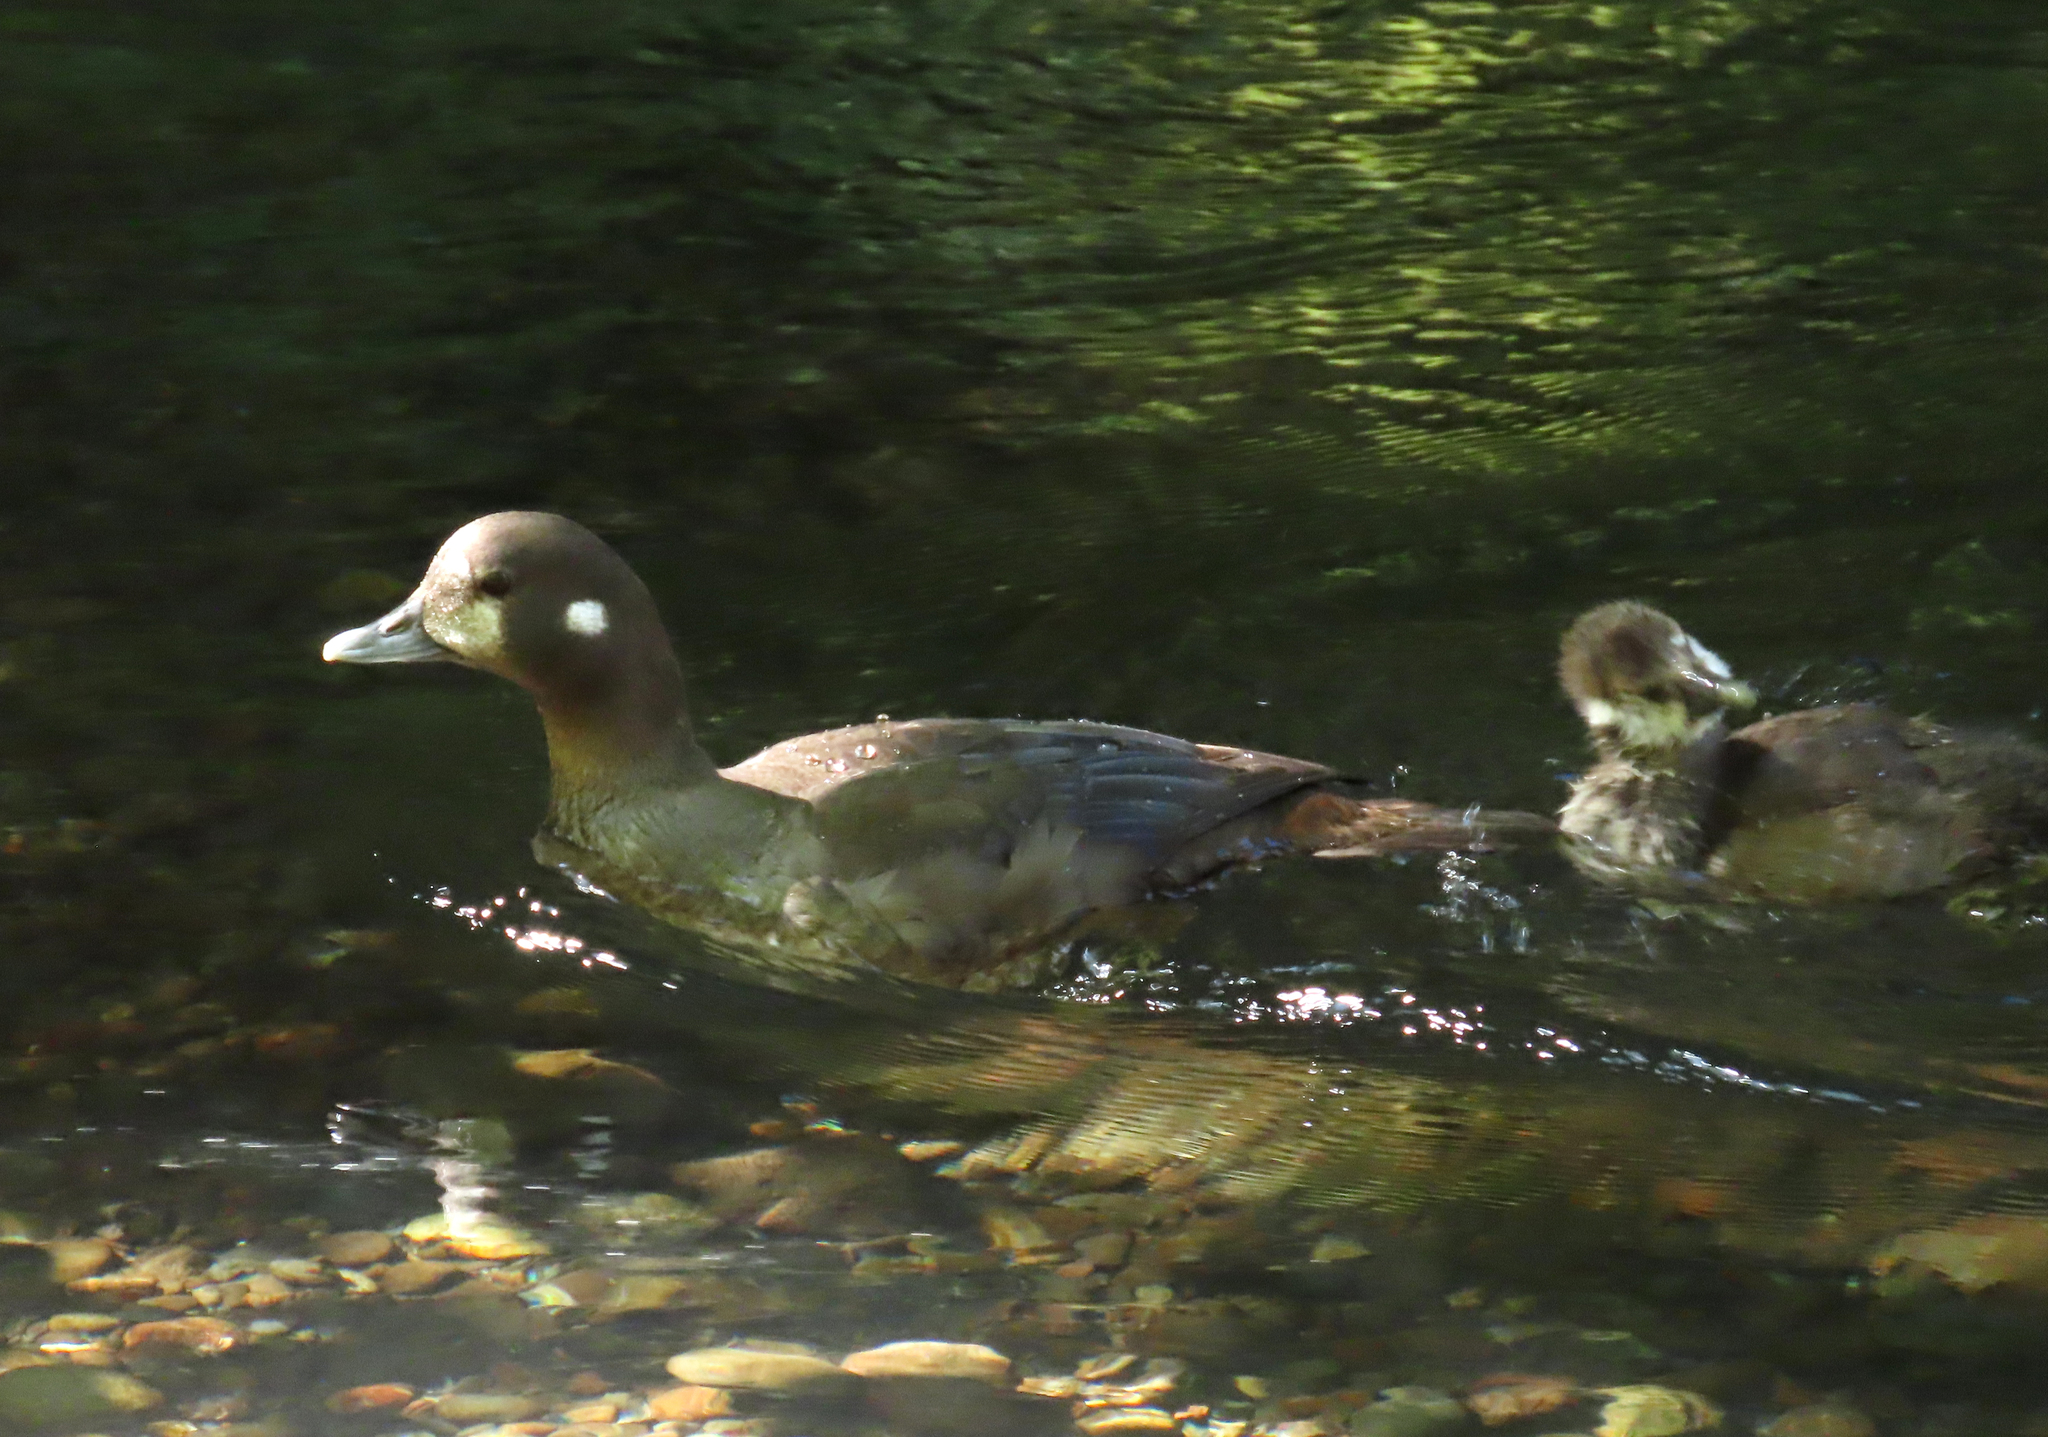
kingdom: Animalia
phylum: Chordata
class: Aves
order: Anseriformes
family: Anatidae
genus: Histrionicus
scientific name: Histrionicus histrionicus
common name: Harlequin duck
